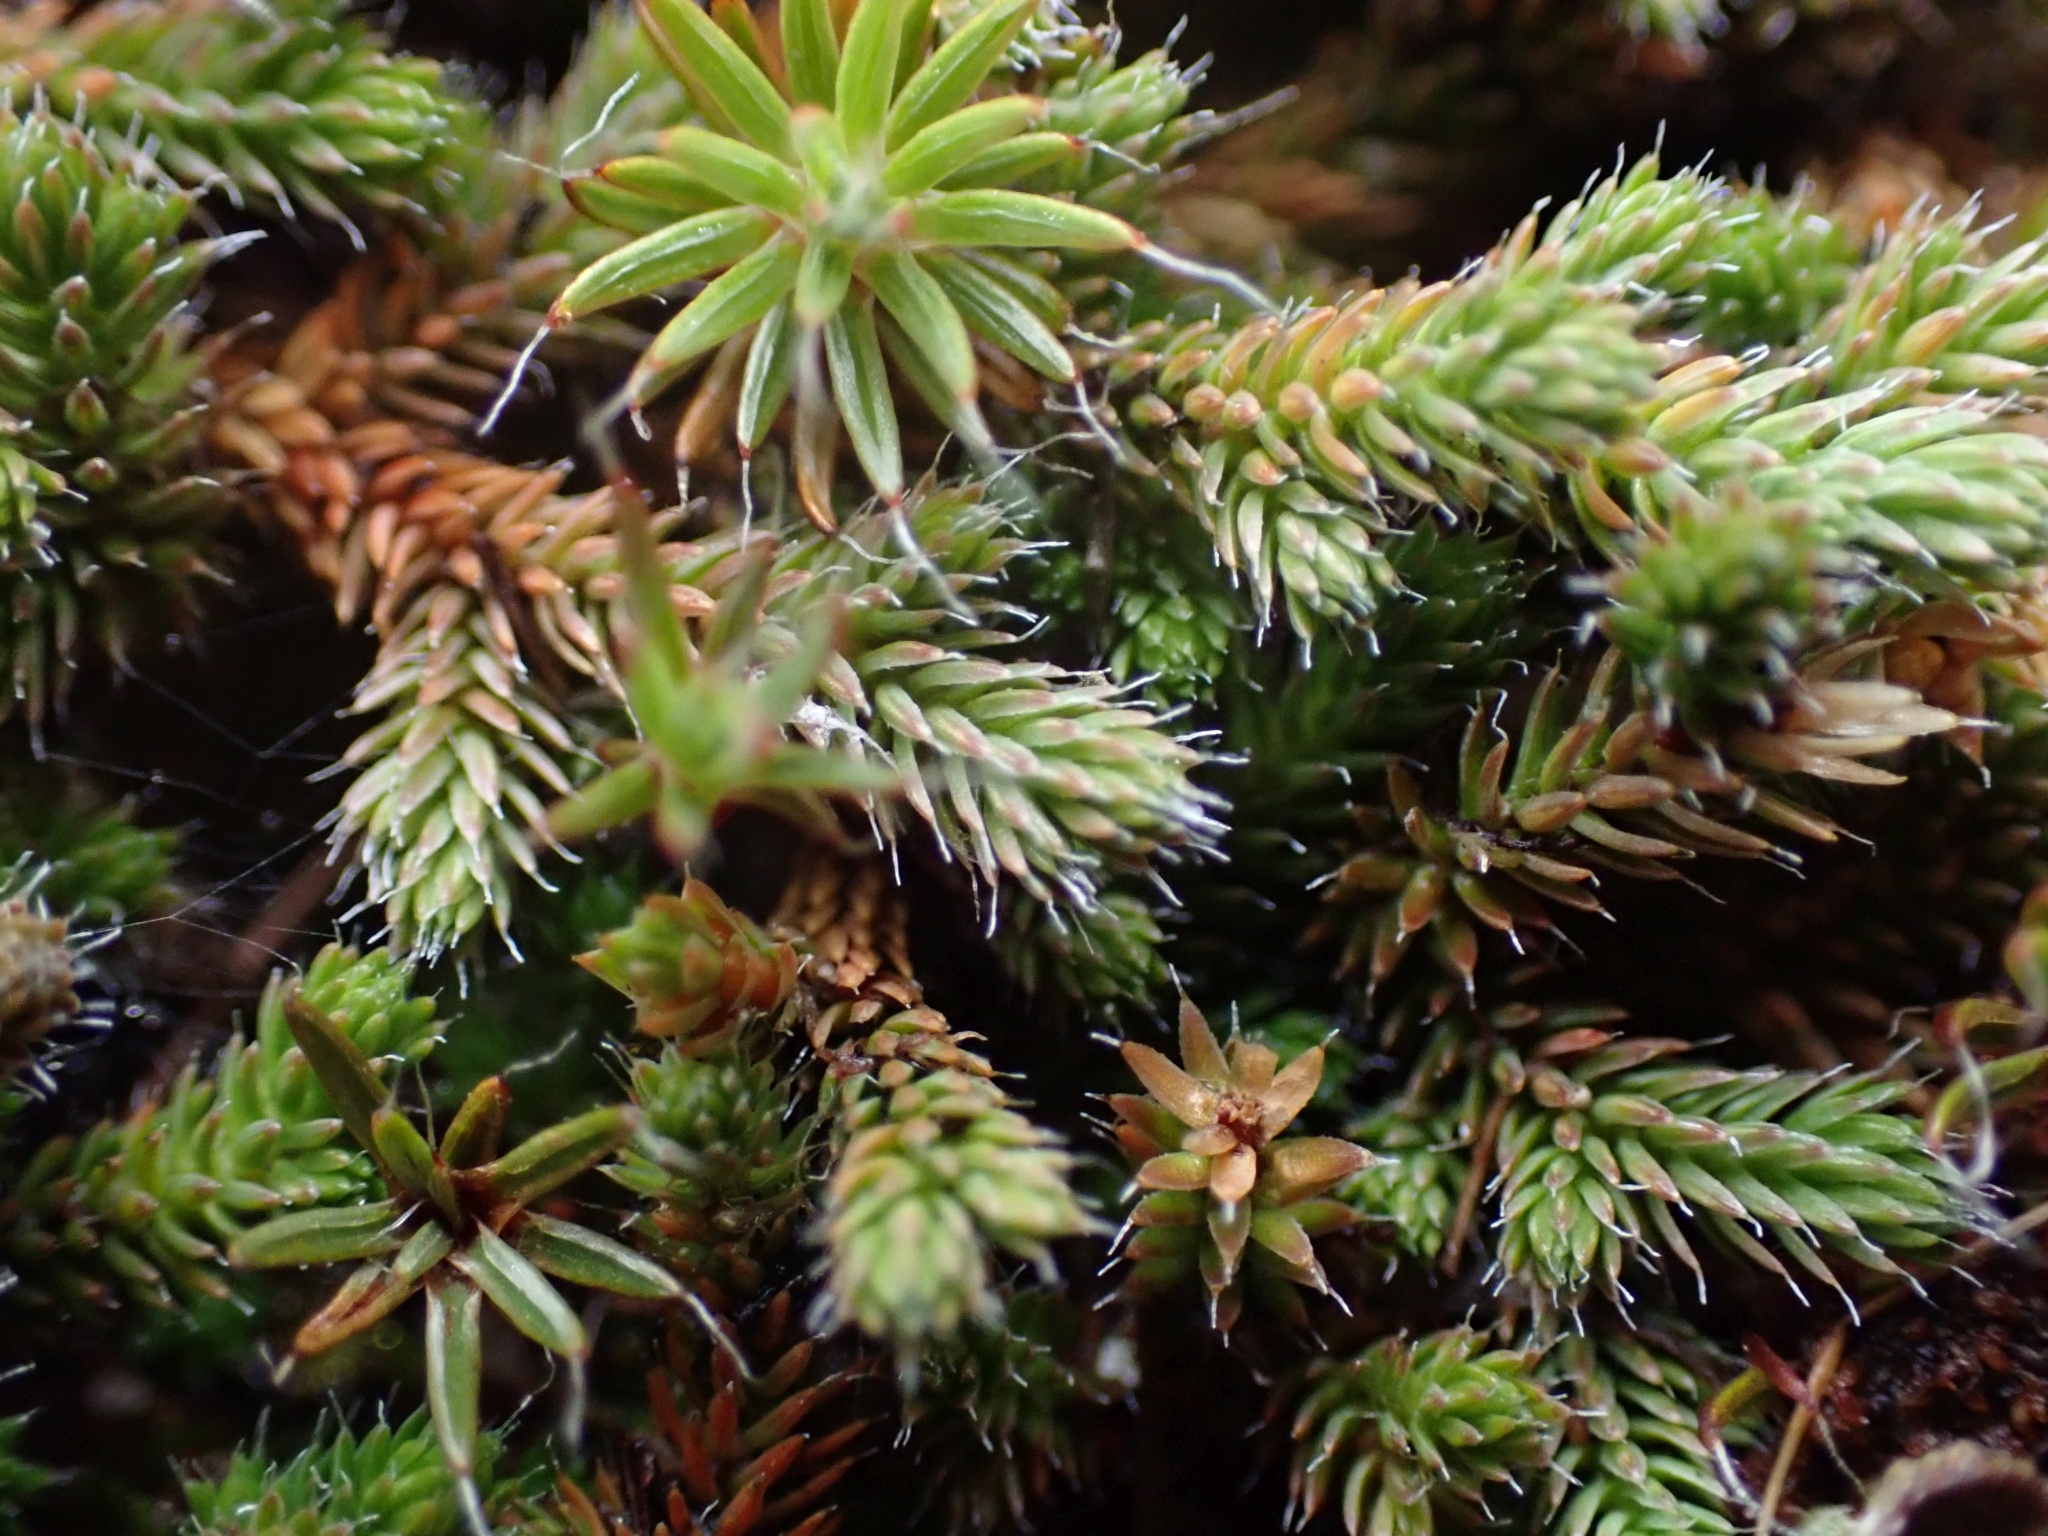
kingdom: Plantae
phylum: Tracheophyta
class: Lycopodiopsida
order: Selaginellales
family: Selaginellaceae
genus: Selaginella
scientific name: Selaginella wallacei
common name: Wallace's selaginella
